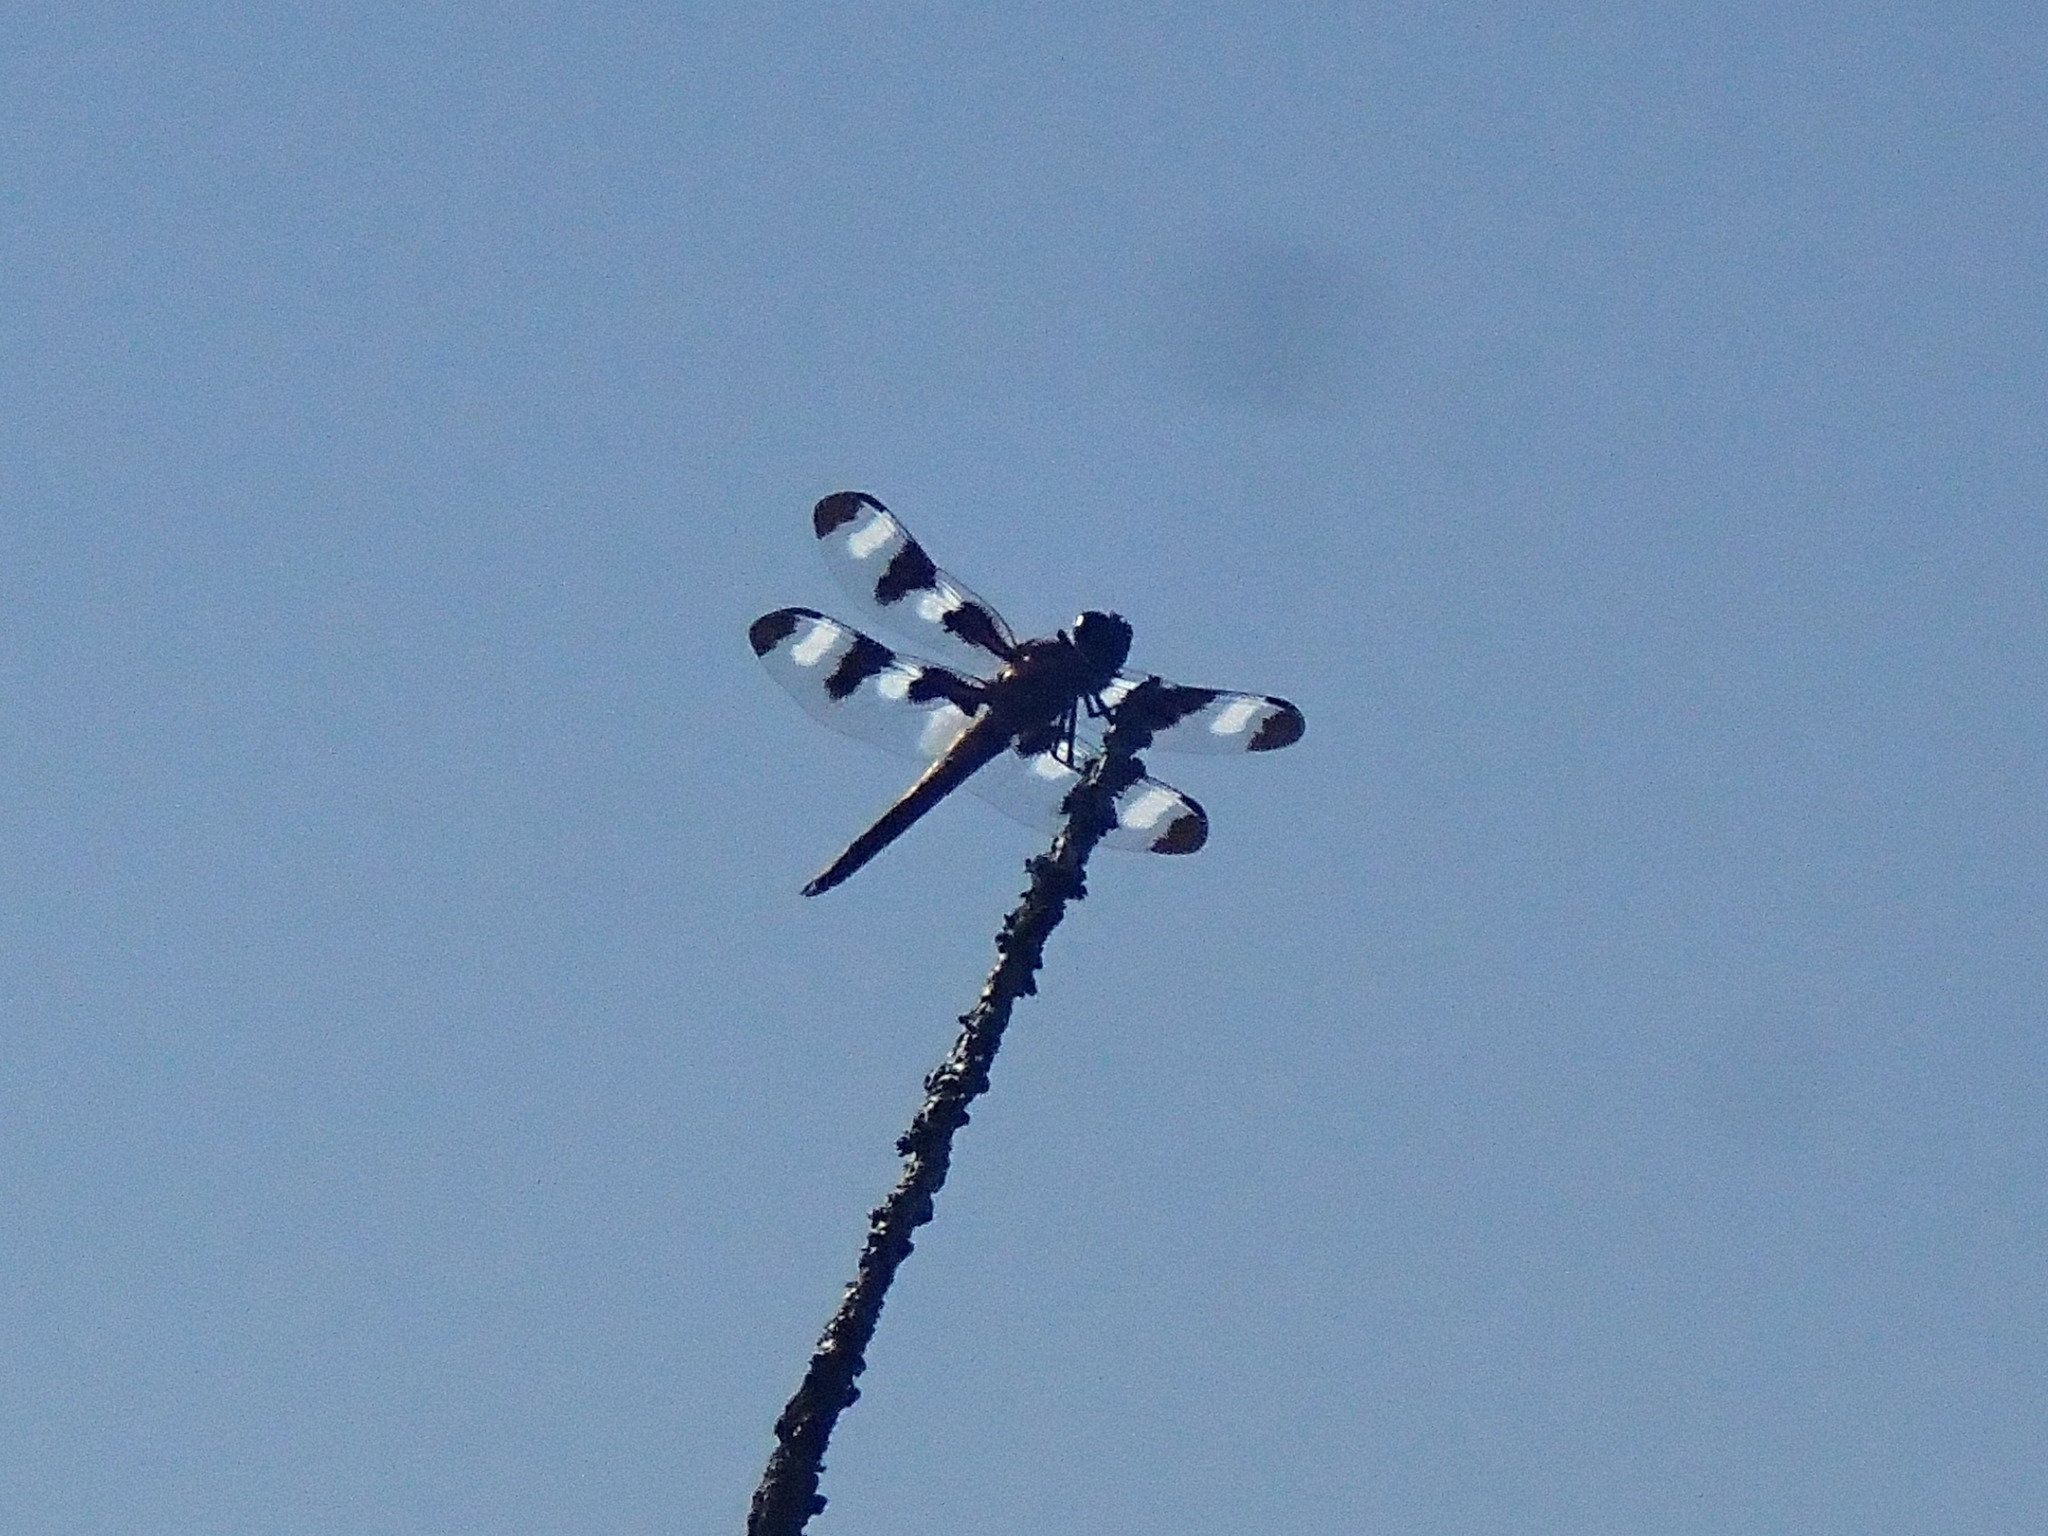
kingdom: Animalia
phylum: Arthropoda
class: Insecta
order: Odonata
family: Libellulidae
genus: Libellula
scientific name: Libellula pulchella
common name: Twelve-spotted skimmer
